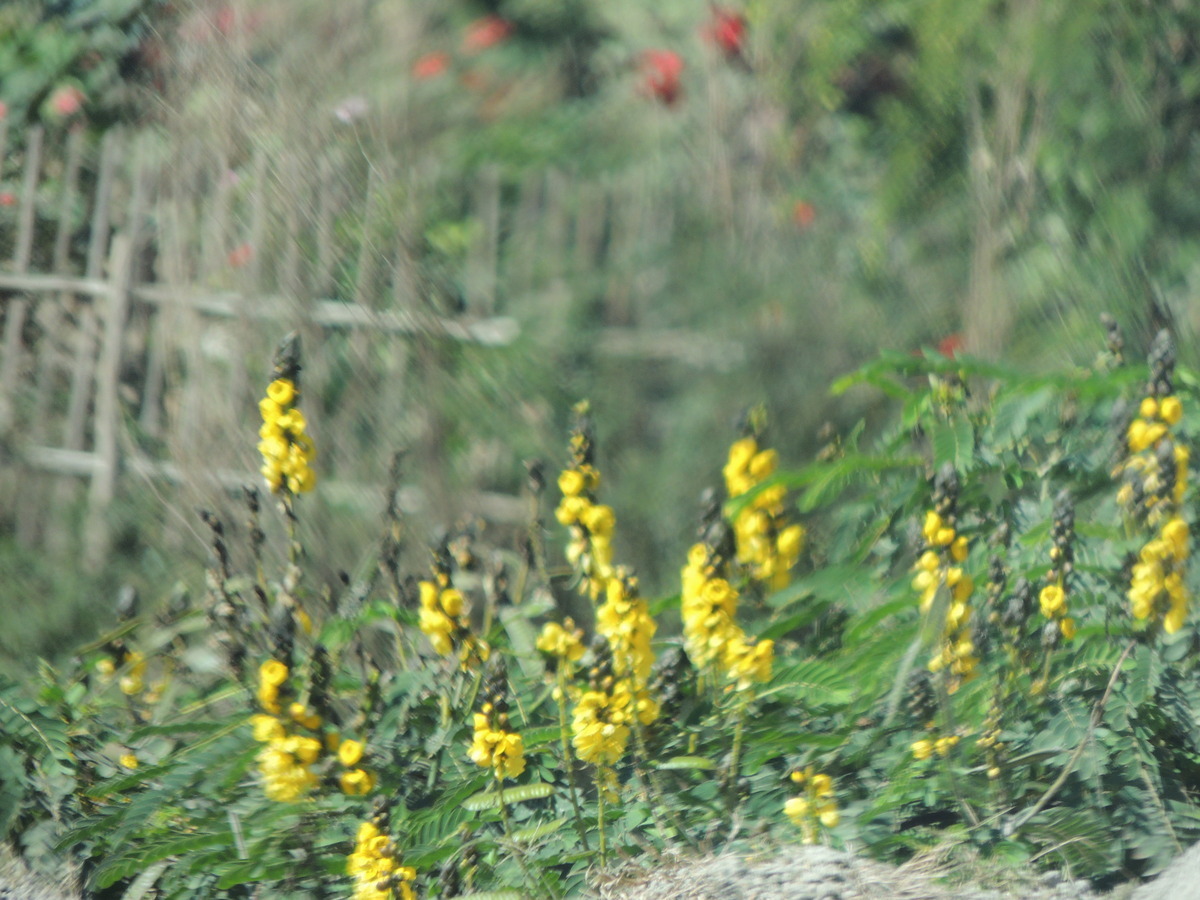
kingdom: Plantae
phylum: Tracheophyta
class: Magnoliopsida
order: Fabales
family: Fabaceae
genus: Senna
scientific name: Senna didymobotrya
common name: African senna
